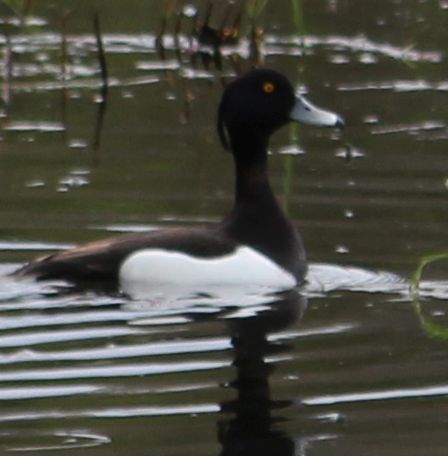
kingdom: Animalia
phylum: Chordata
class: Aves
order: Anseriformes
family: Anatidae
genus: Aythya
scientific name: Aythya fuligula
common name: Tufted duck
